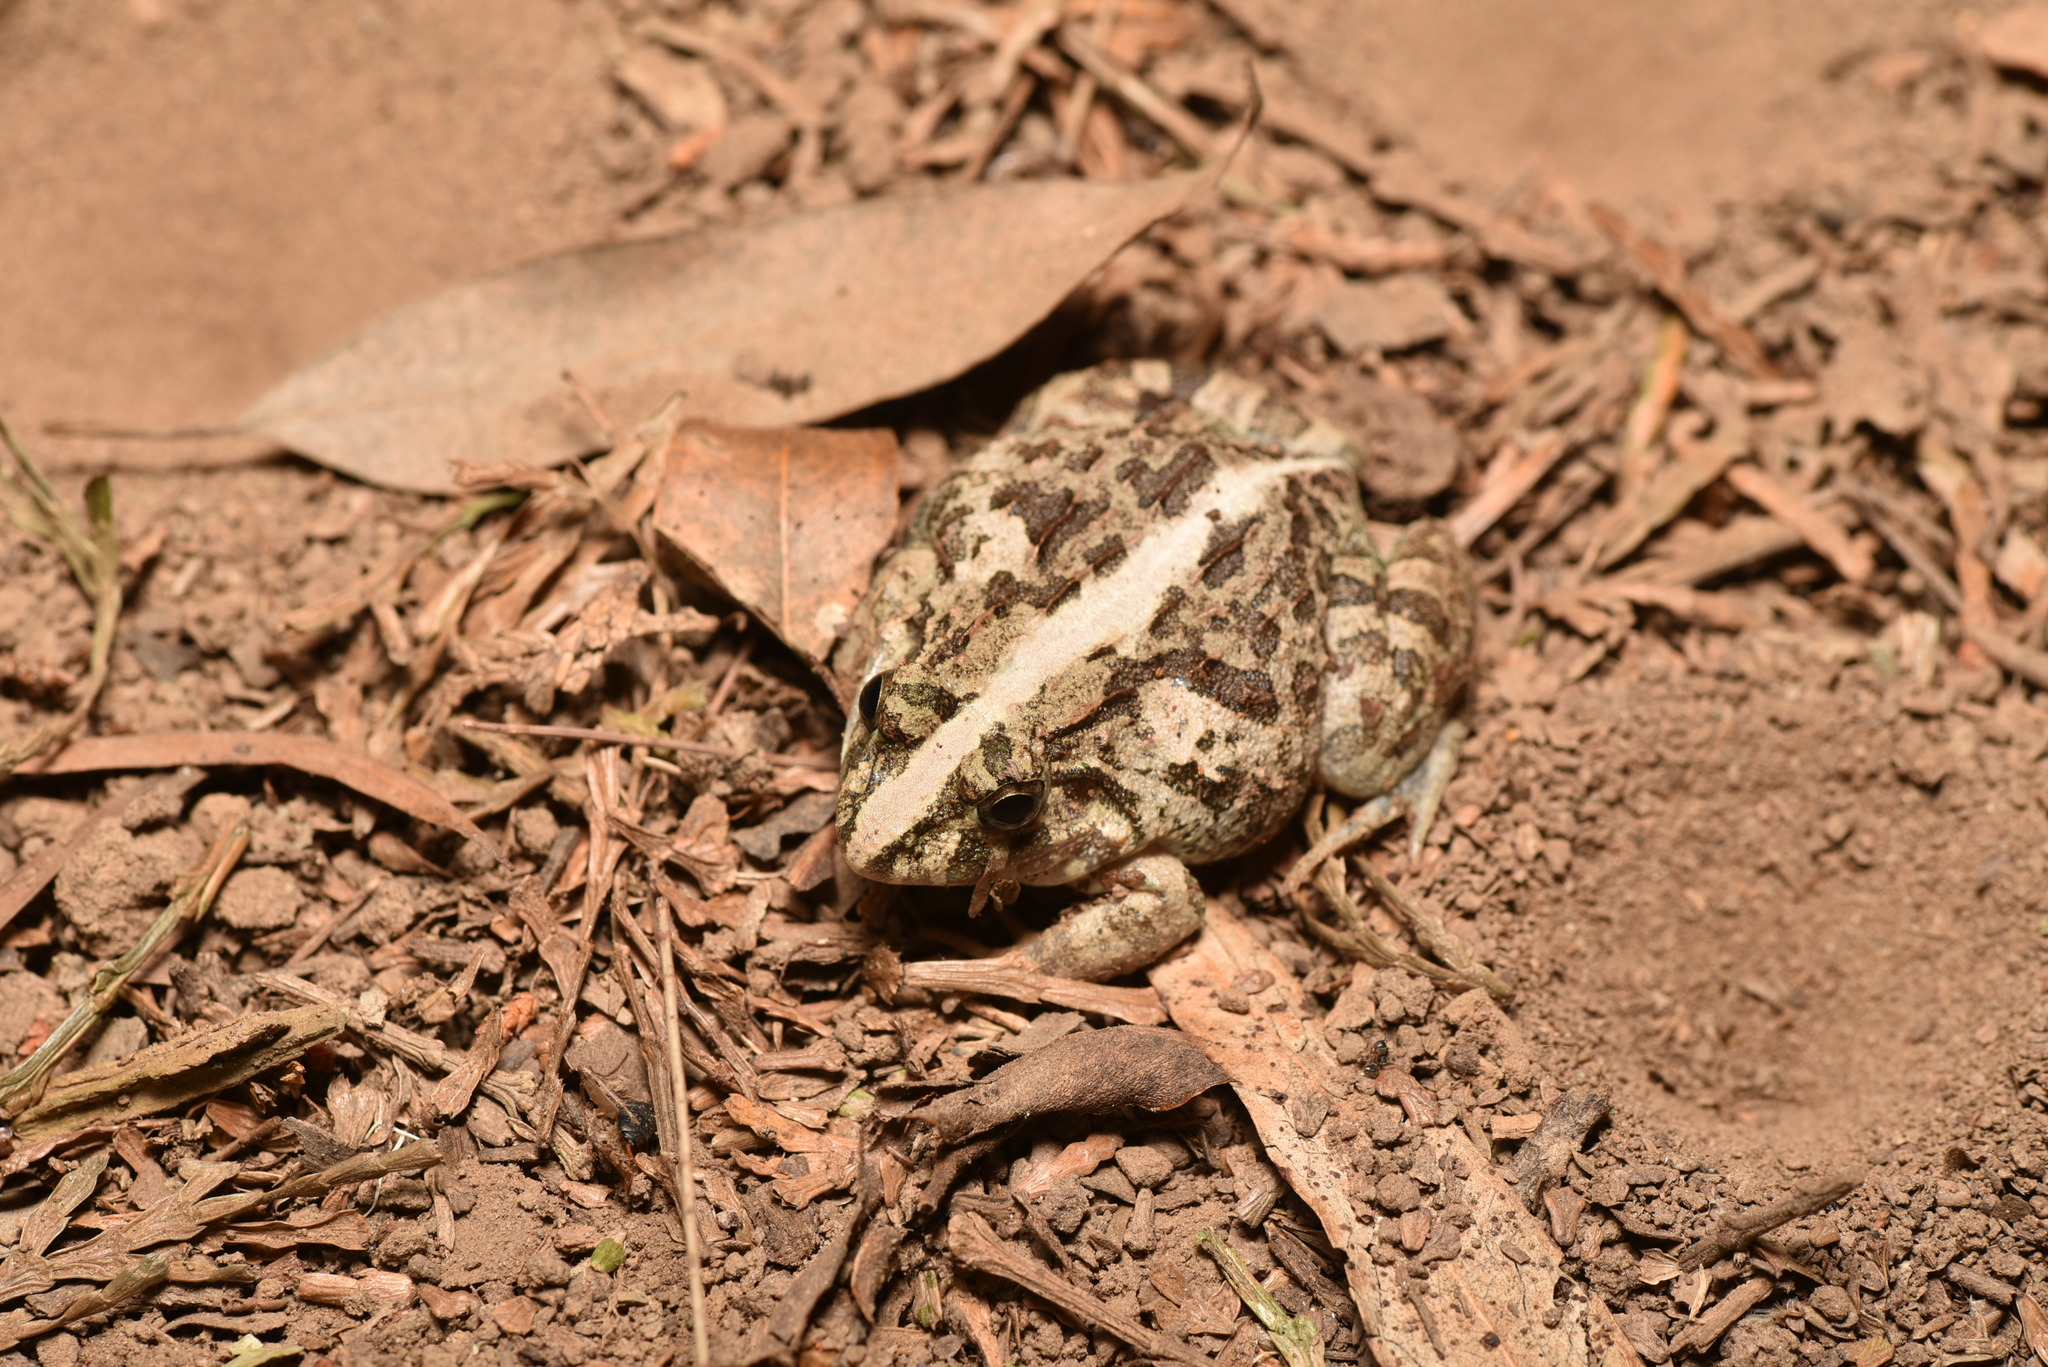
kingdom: Animalia
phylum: Chordata
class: Amphibia
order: Anura
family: Dicroglossidae
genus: Fejervarya
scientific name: Fejervarya limnocharis
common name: Asian grass frog/common pond frog/field frog/grass frog/indian rice frog
